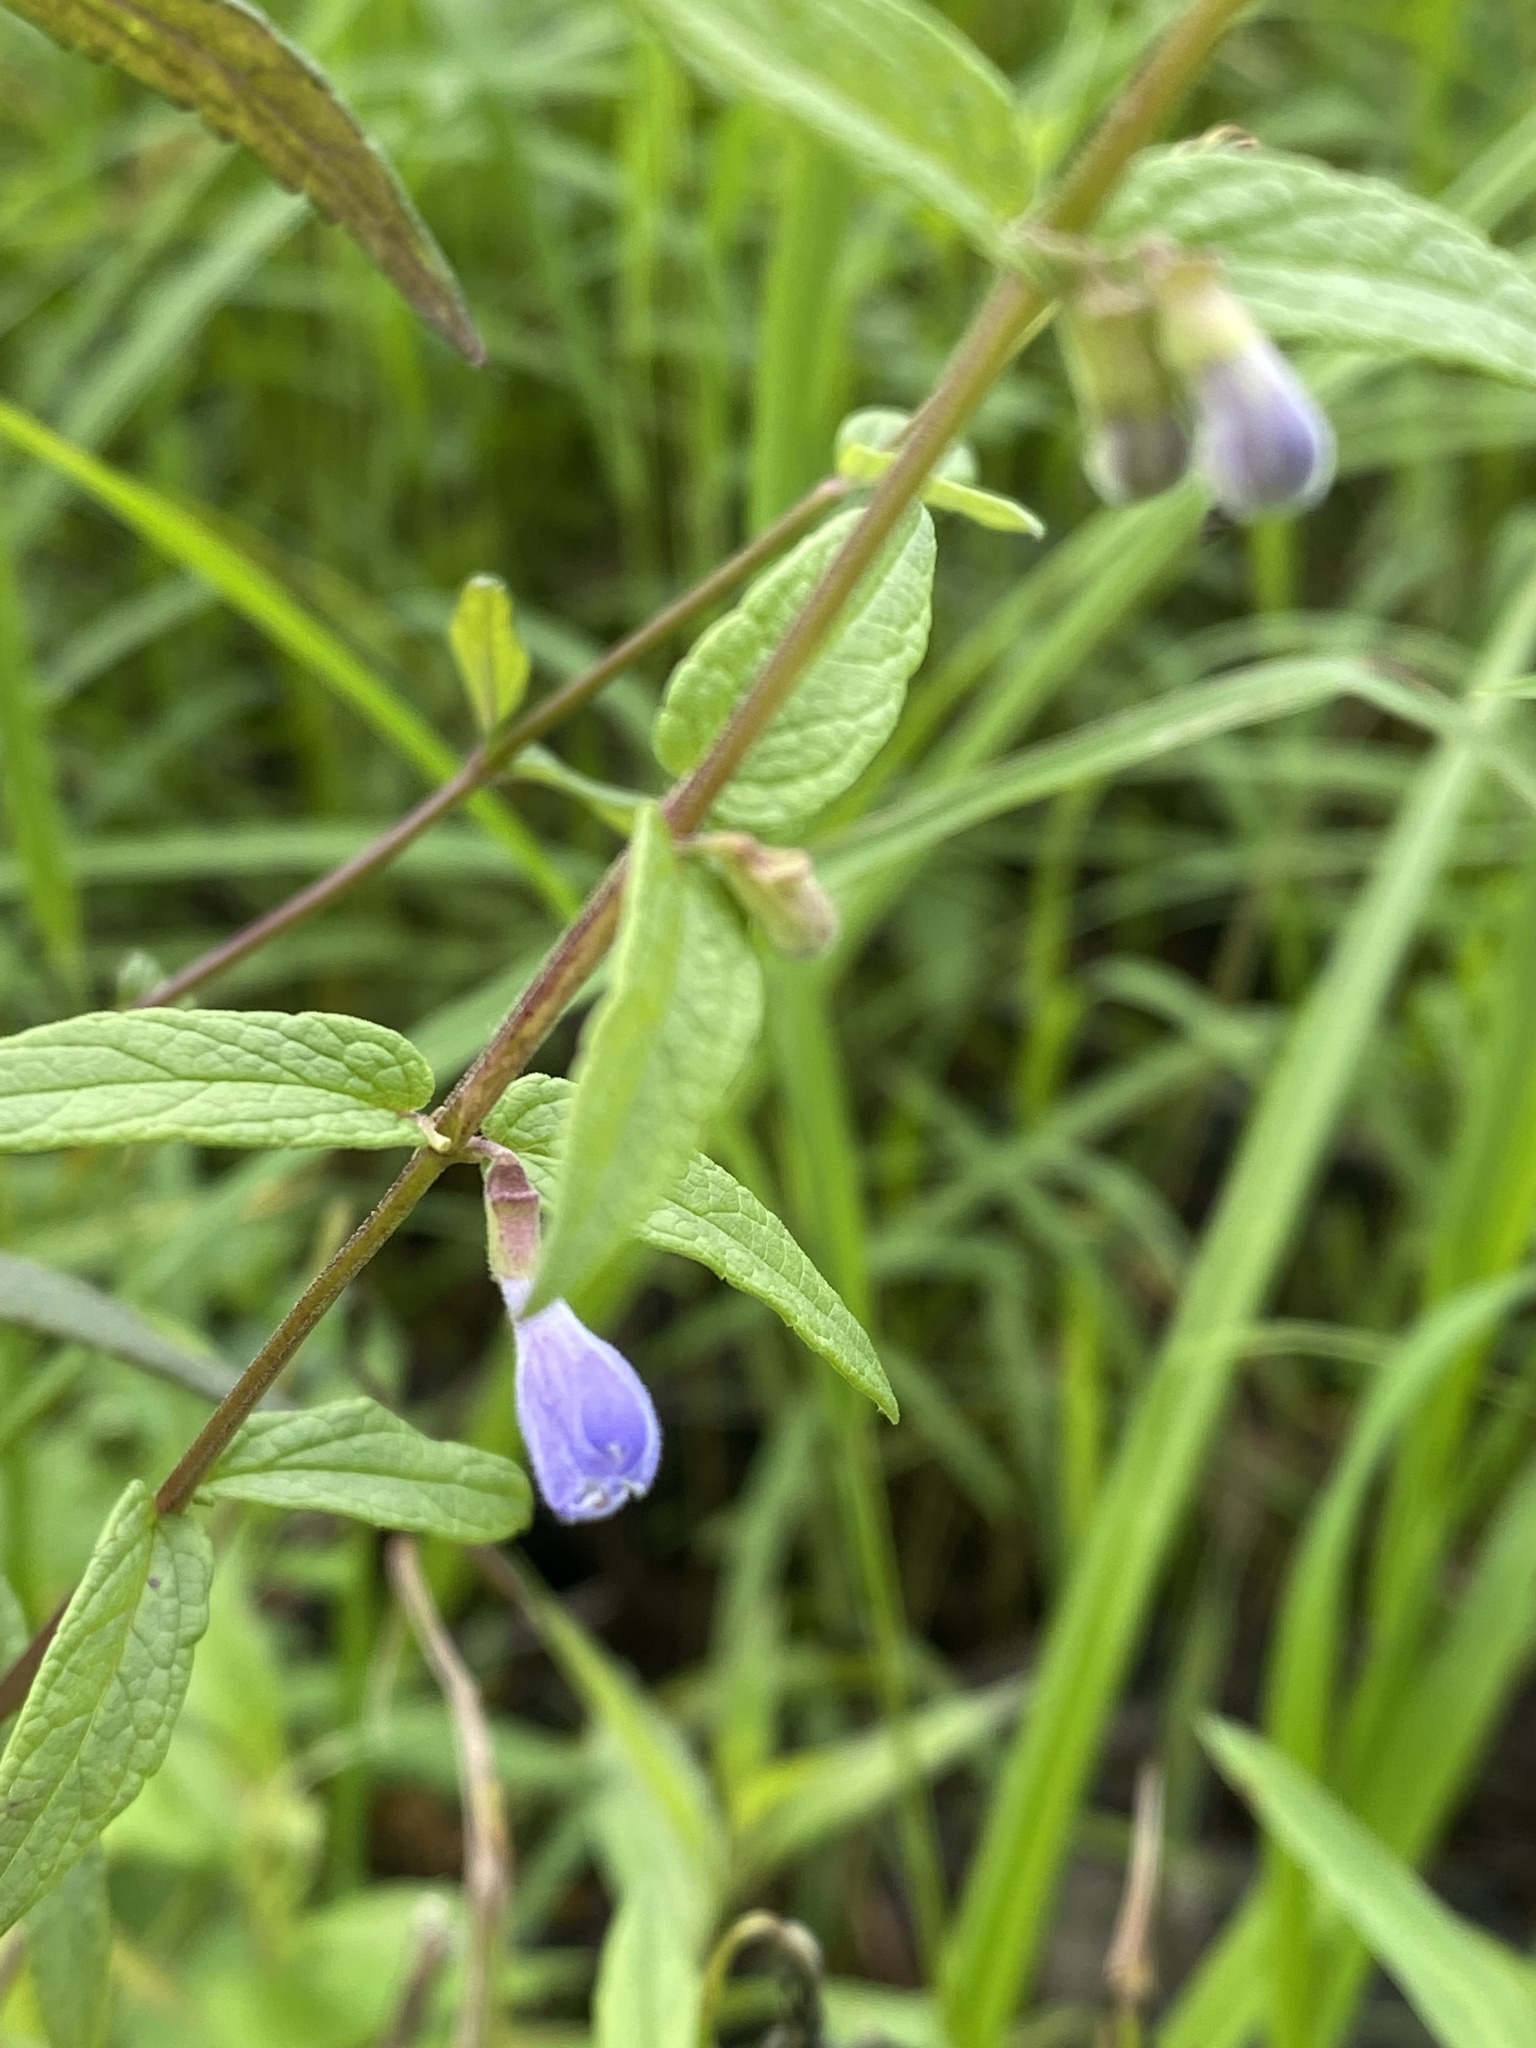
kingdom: Plantae
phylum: Tracheophyta
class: Magnoliopsida
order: Lamiales
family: Lamiaceae
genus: Scutellaria
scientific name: Scutellaria galericulata
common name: Skullcap
